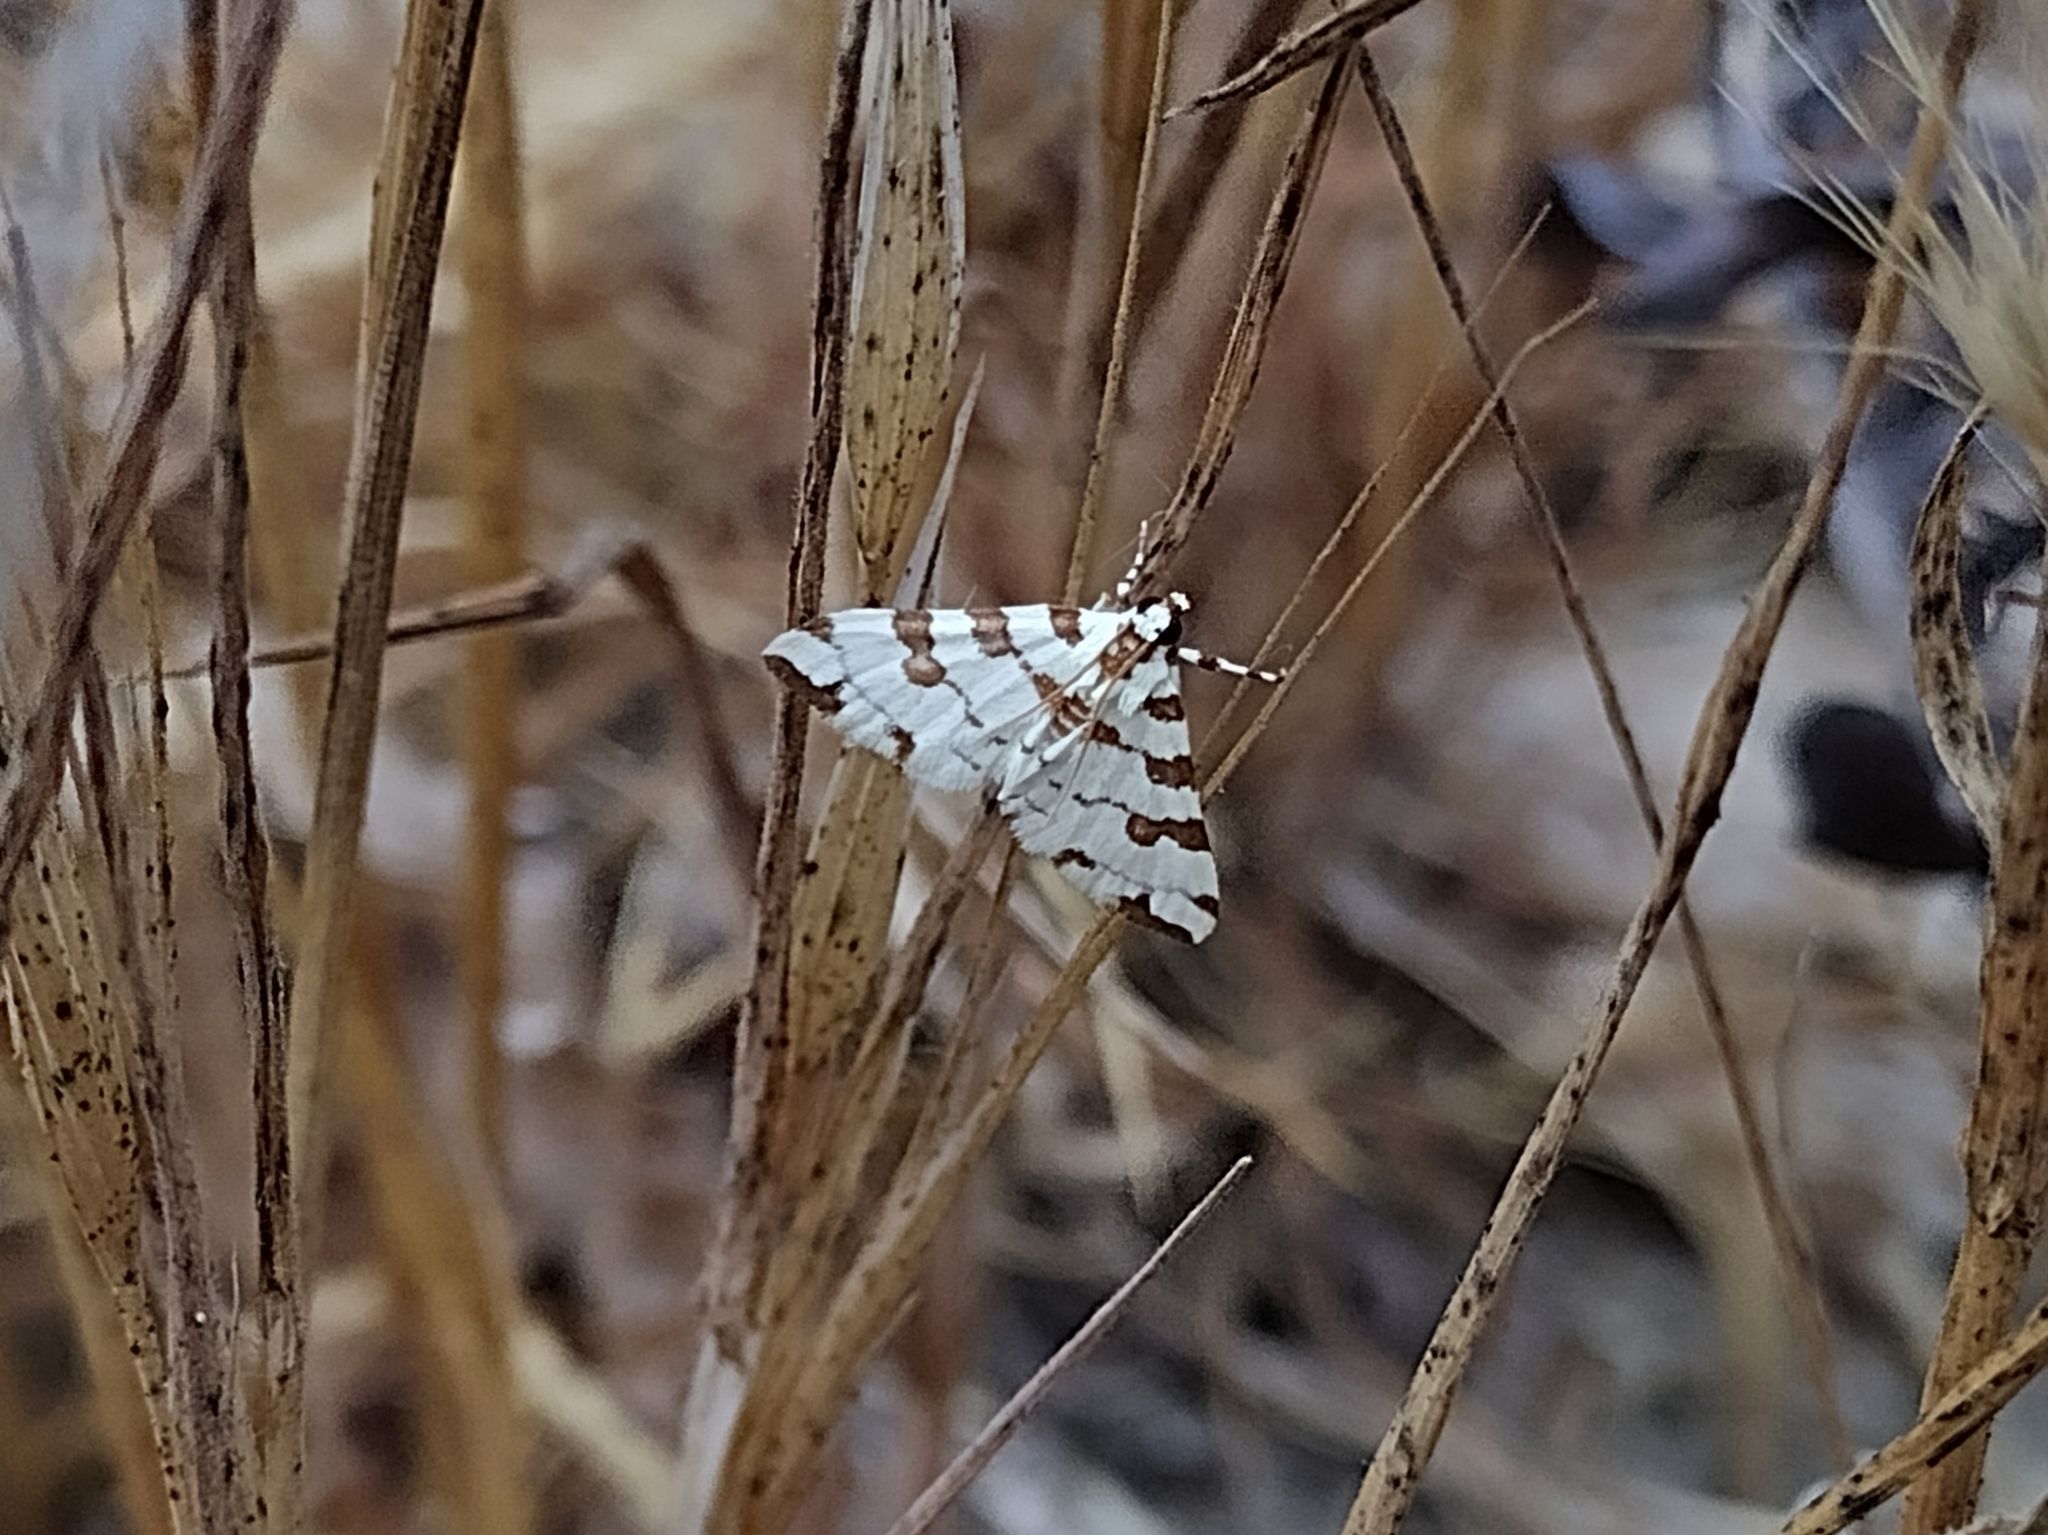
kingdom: Animalia
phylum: Arthropoda
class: Insecta
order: Lepidoptera
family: Crambidae
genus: Conchylodes
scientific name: Conchylodes
